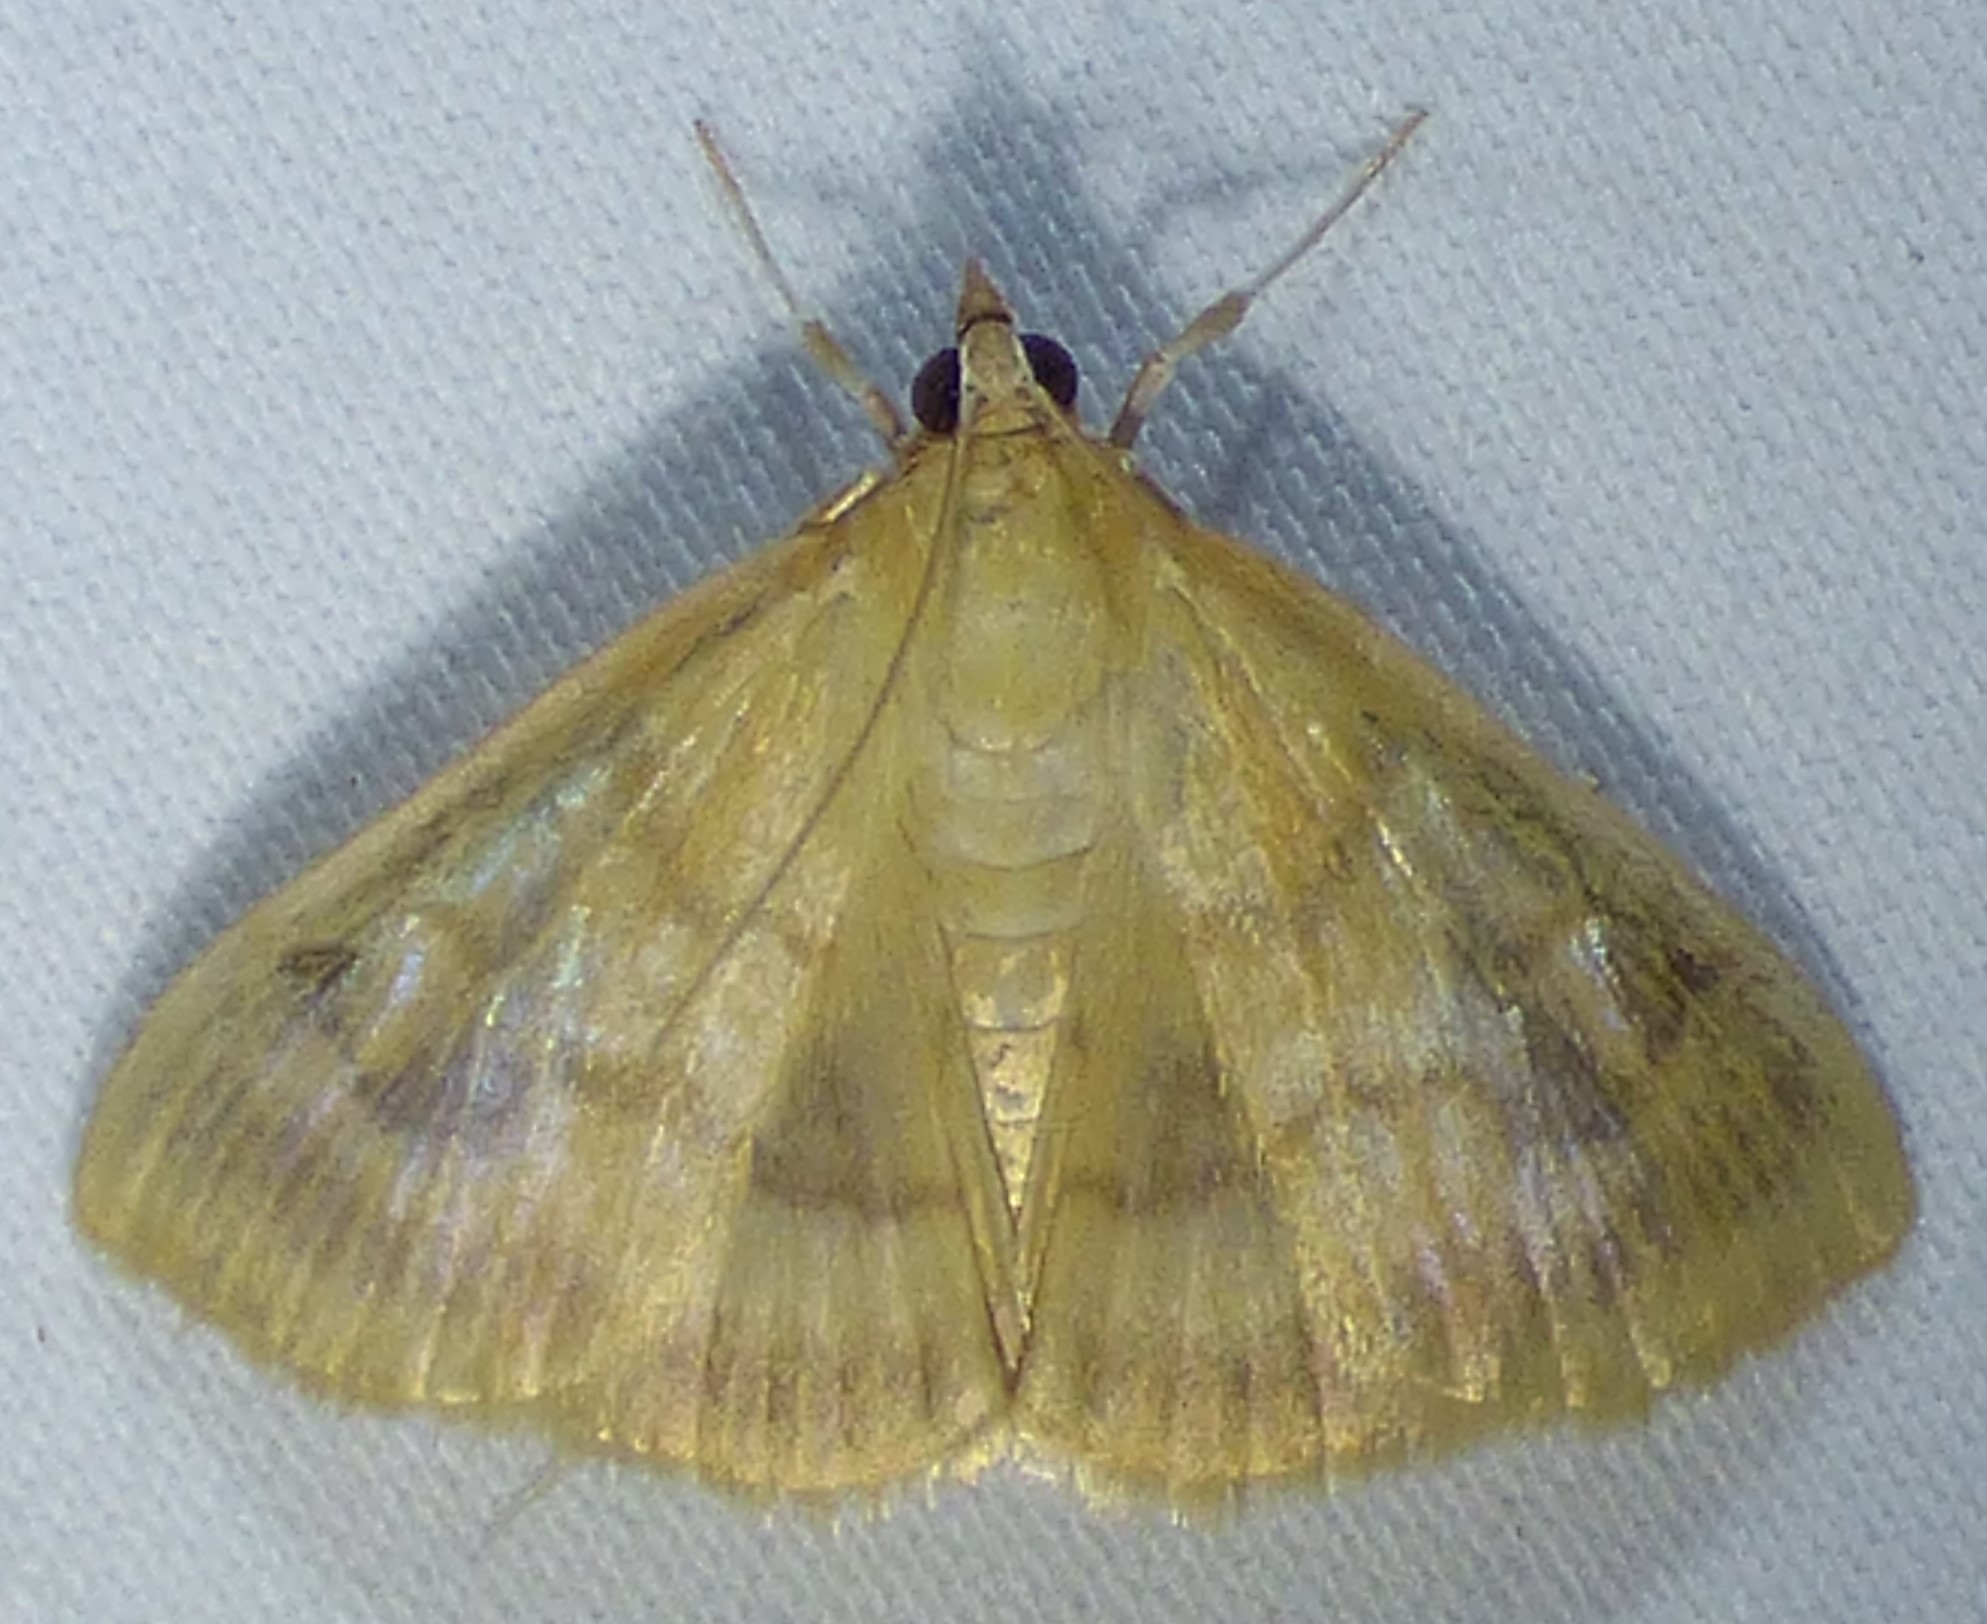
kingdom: Animalia
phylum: Arthropoda
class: Insecta
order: Lepidoptera
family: Crambidae
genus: Crocidophora
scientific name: Crocidophora tuberculalis
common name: Pale-winged crocidiphora moth
